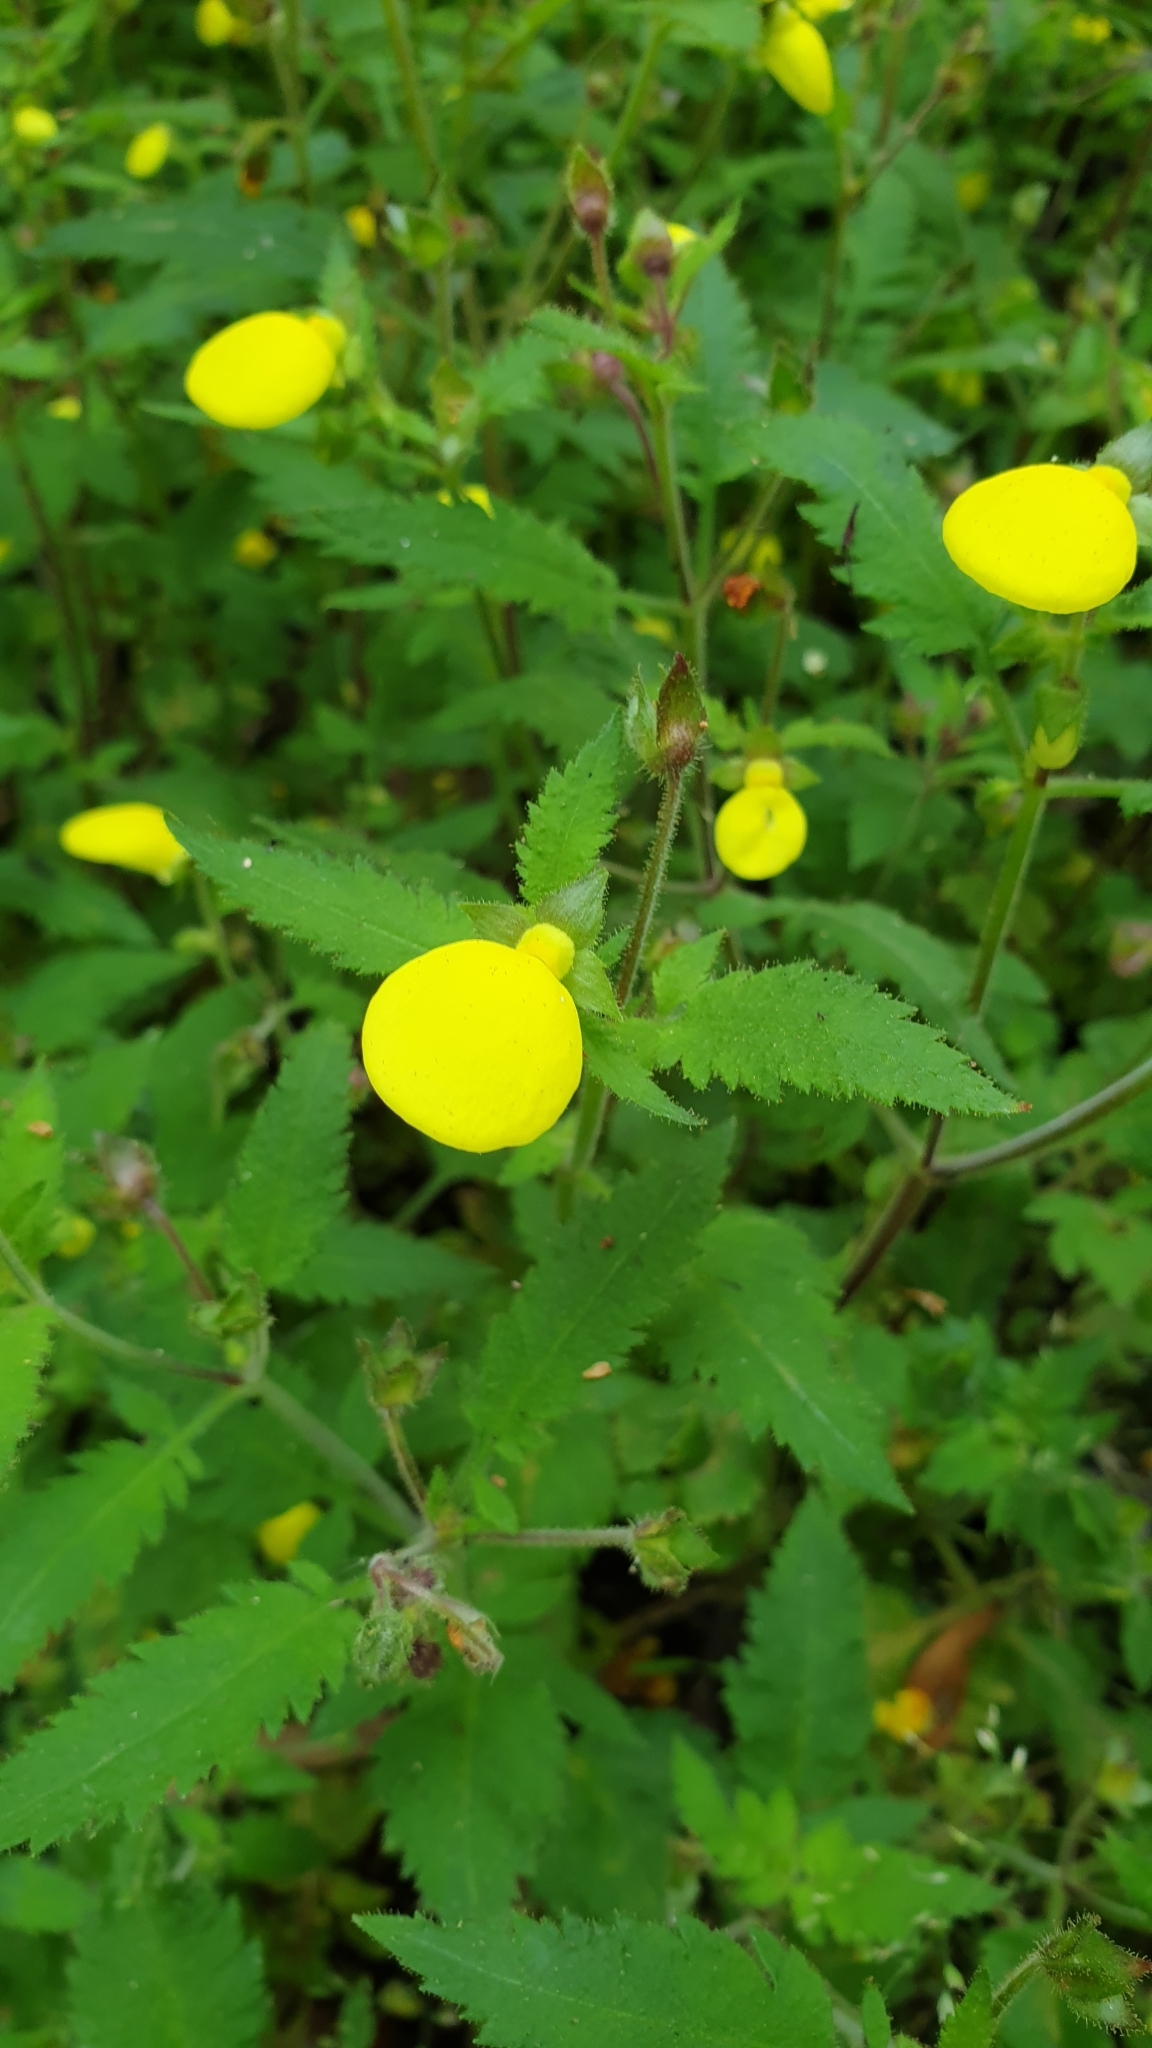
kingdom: Plantae
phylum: Tracheophyta
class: Magnoliopsida
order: Lamiales
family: Calceolariaceae
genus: Calceolaria
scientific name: Calceolaria tripartita
